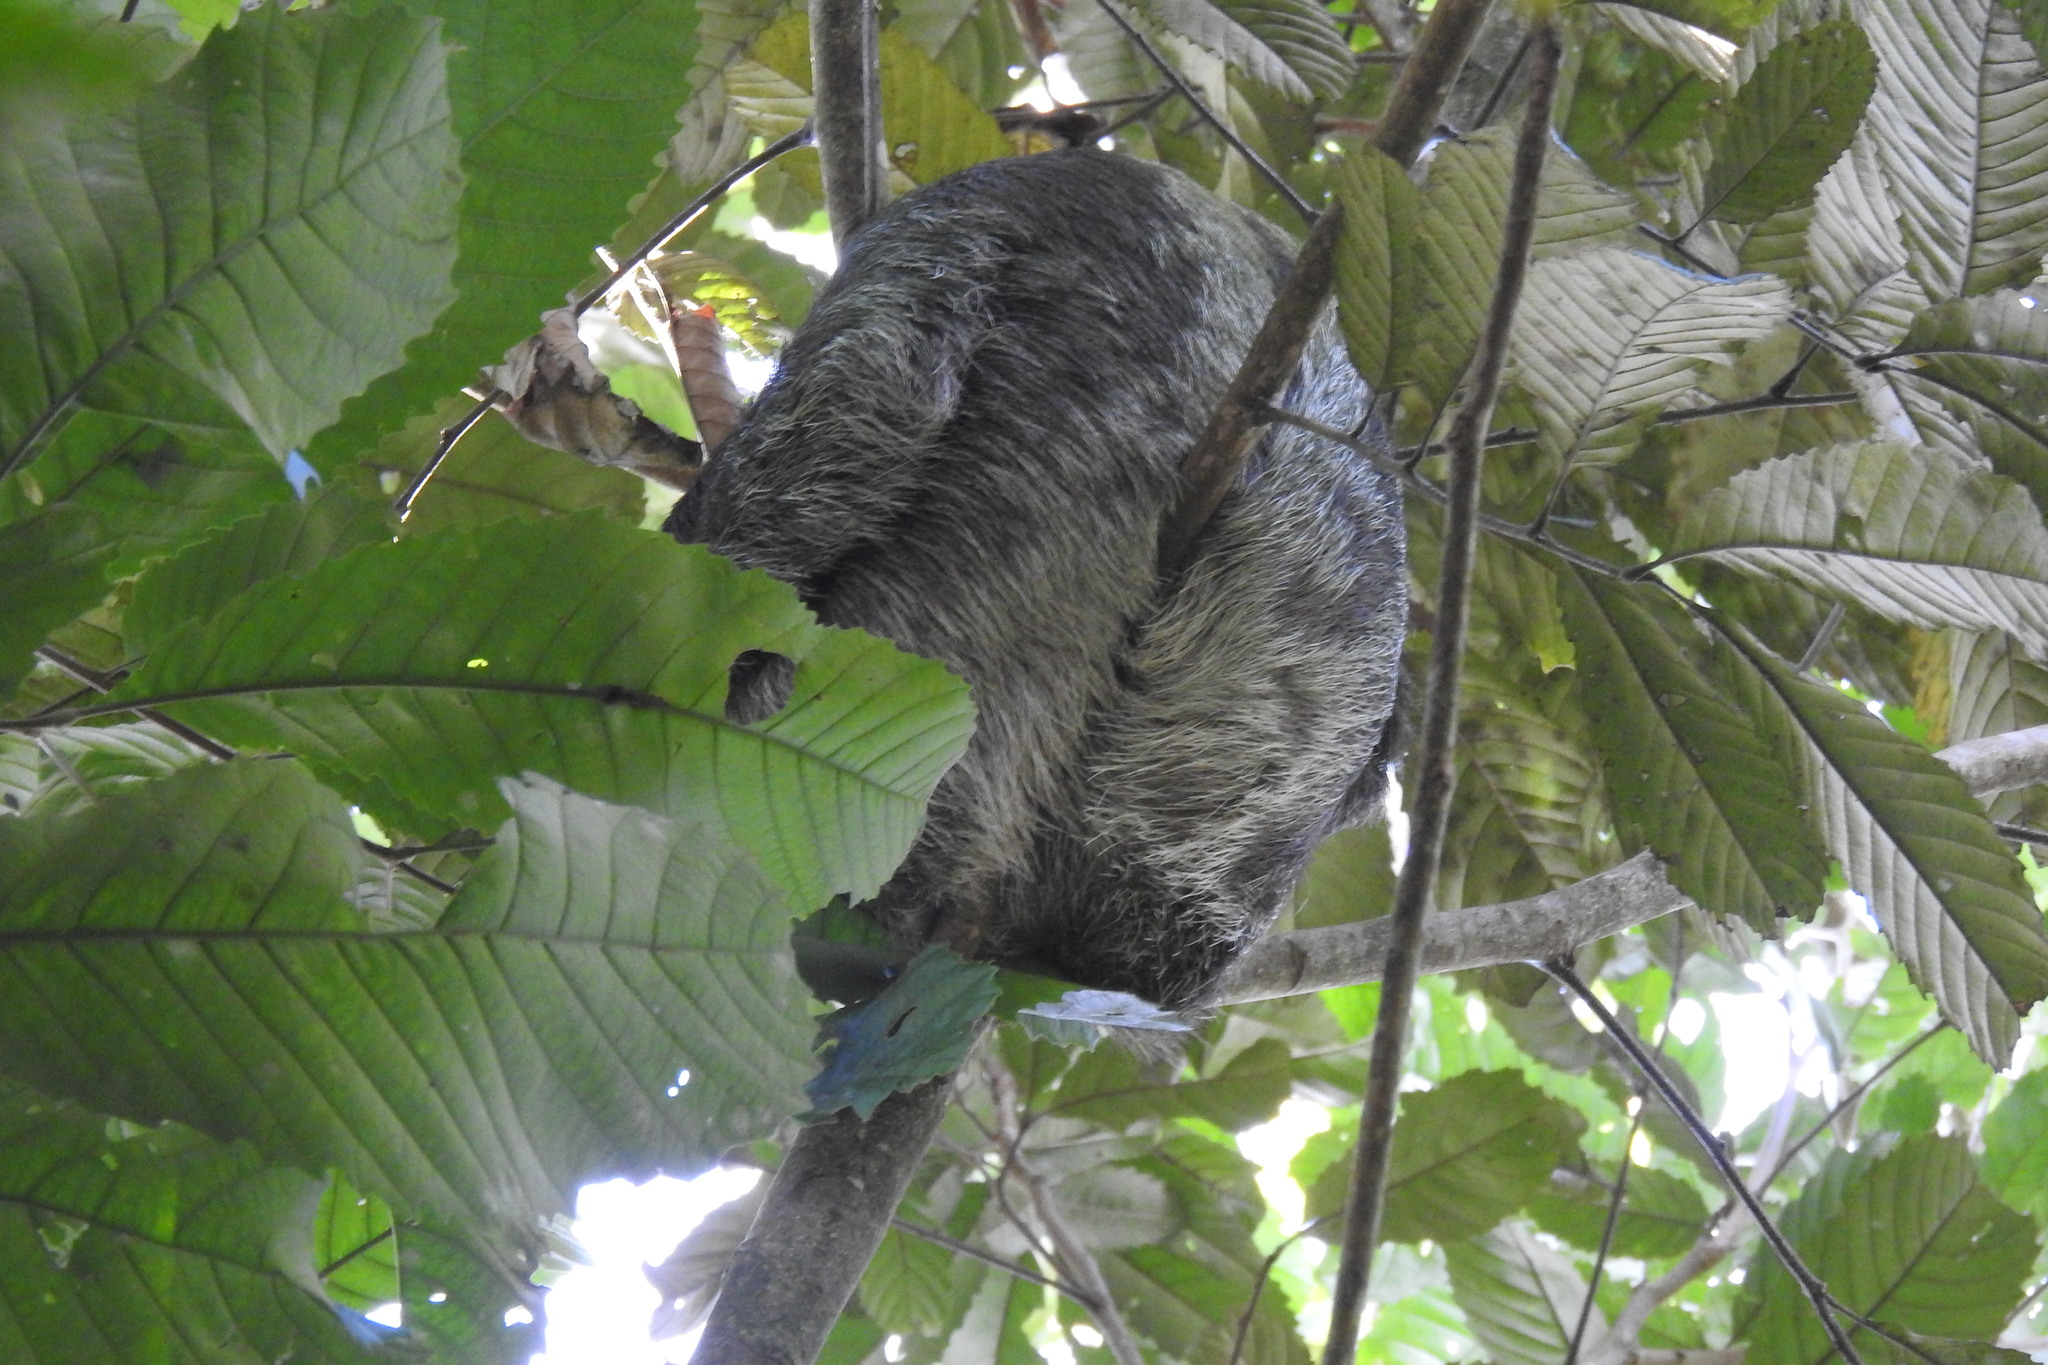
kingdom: Animalia
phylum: Chordata
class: Mammalia
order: Pilosa
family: Bradypodidae
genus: Bradypus
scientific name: Bradypus variegatus
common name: Brown-throated three-toed sloth
